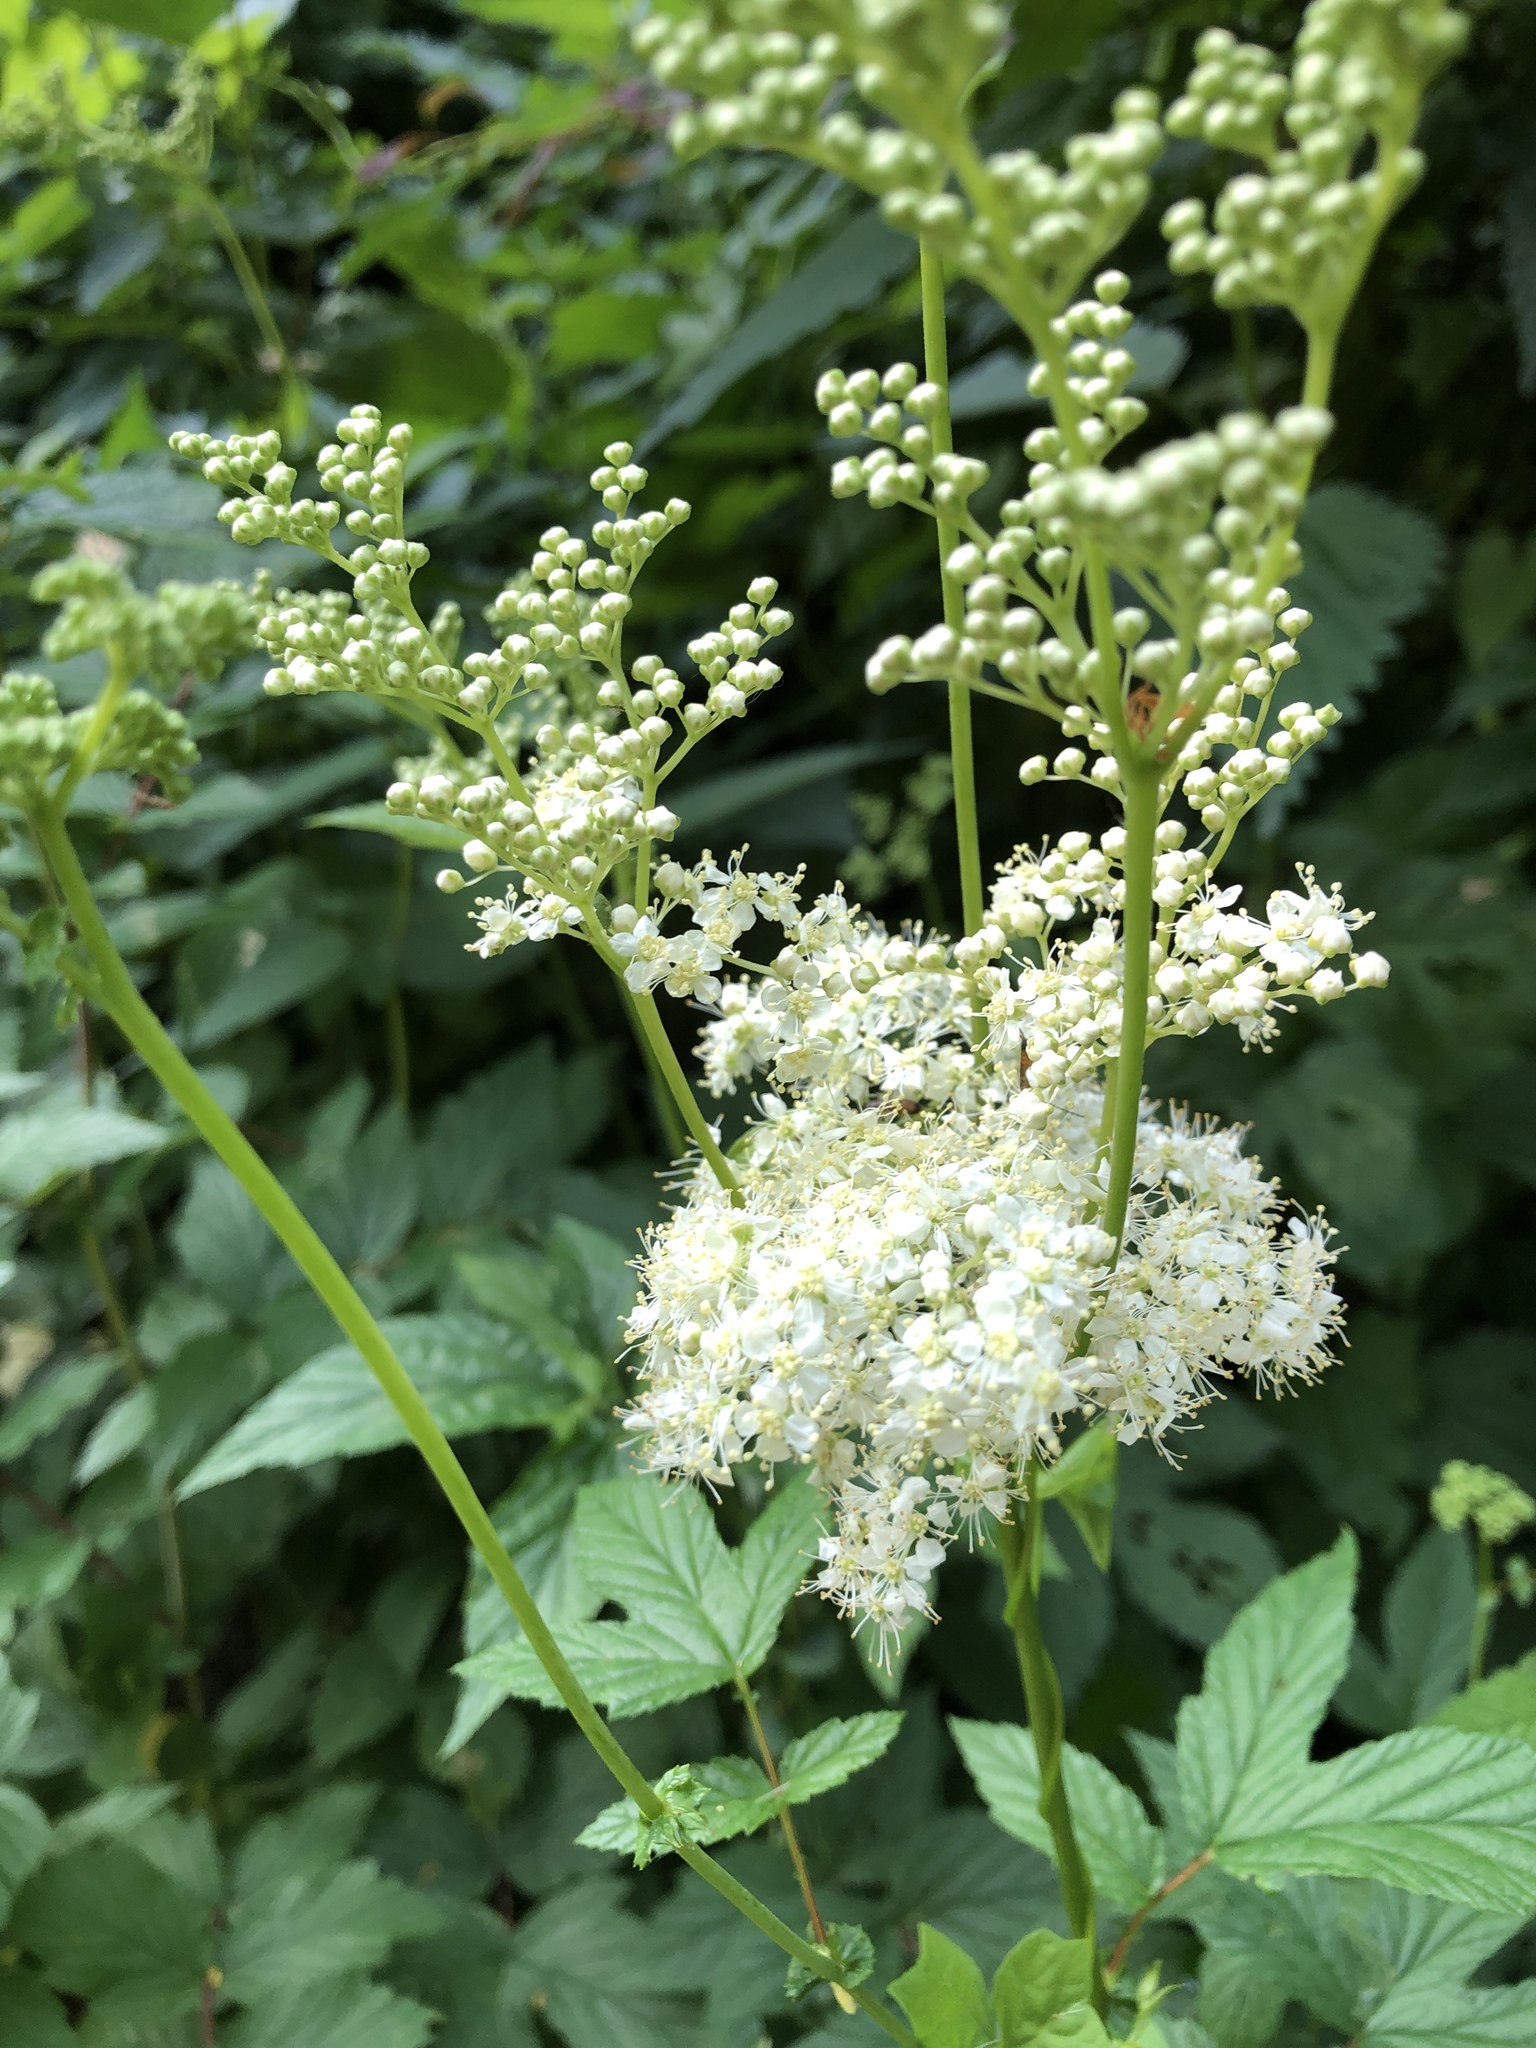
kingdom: Plantae
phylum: Tracheophyta
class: Magnoliopsida
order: Rosales
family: Rosaceae
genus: Filipendula
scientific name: Filipendula ulmaria
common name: Meadowsweet
